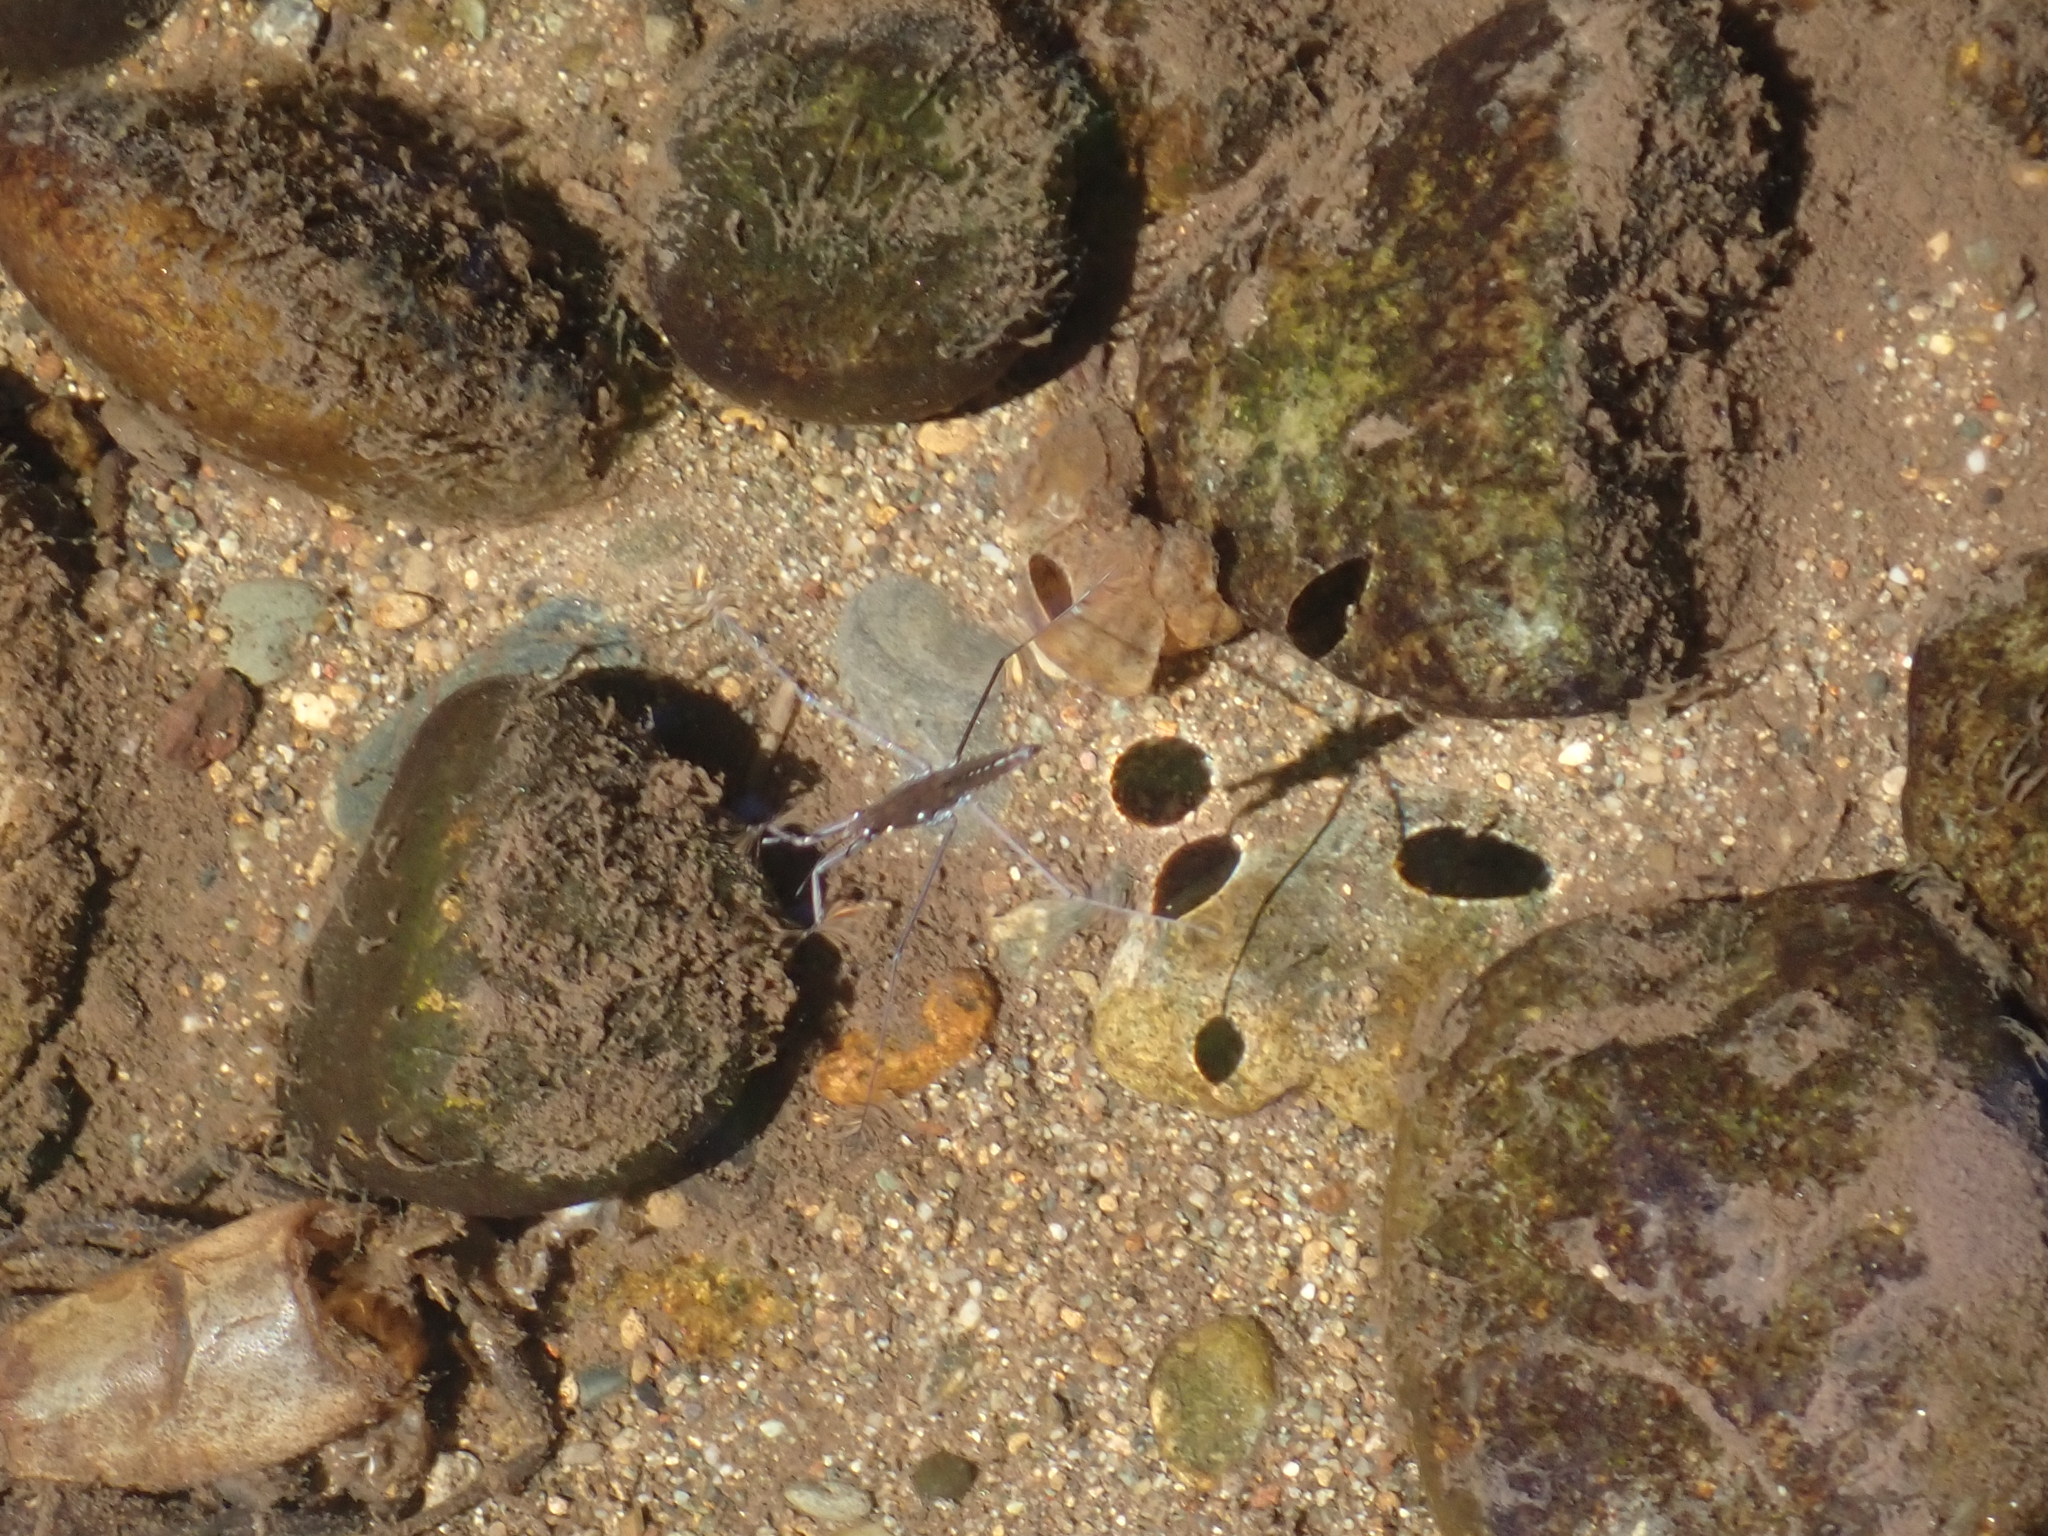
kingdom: Animalia
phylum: Arthropoda
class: Insecta
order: Hemiptera
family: Gerridae
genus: Aquarius
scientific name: Aquarius remigis
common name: Common water strider
